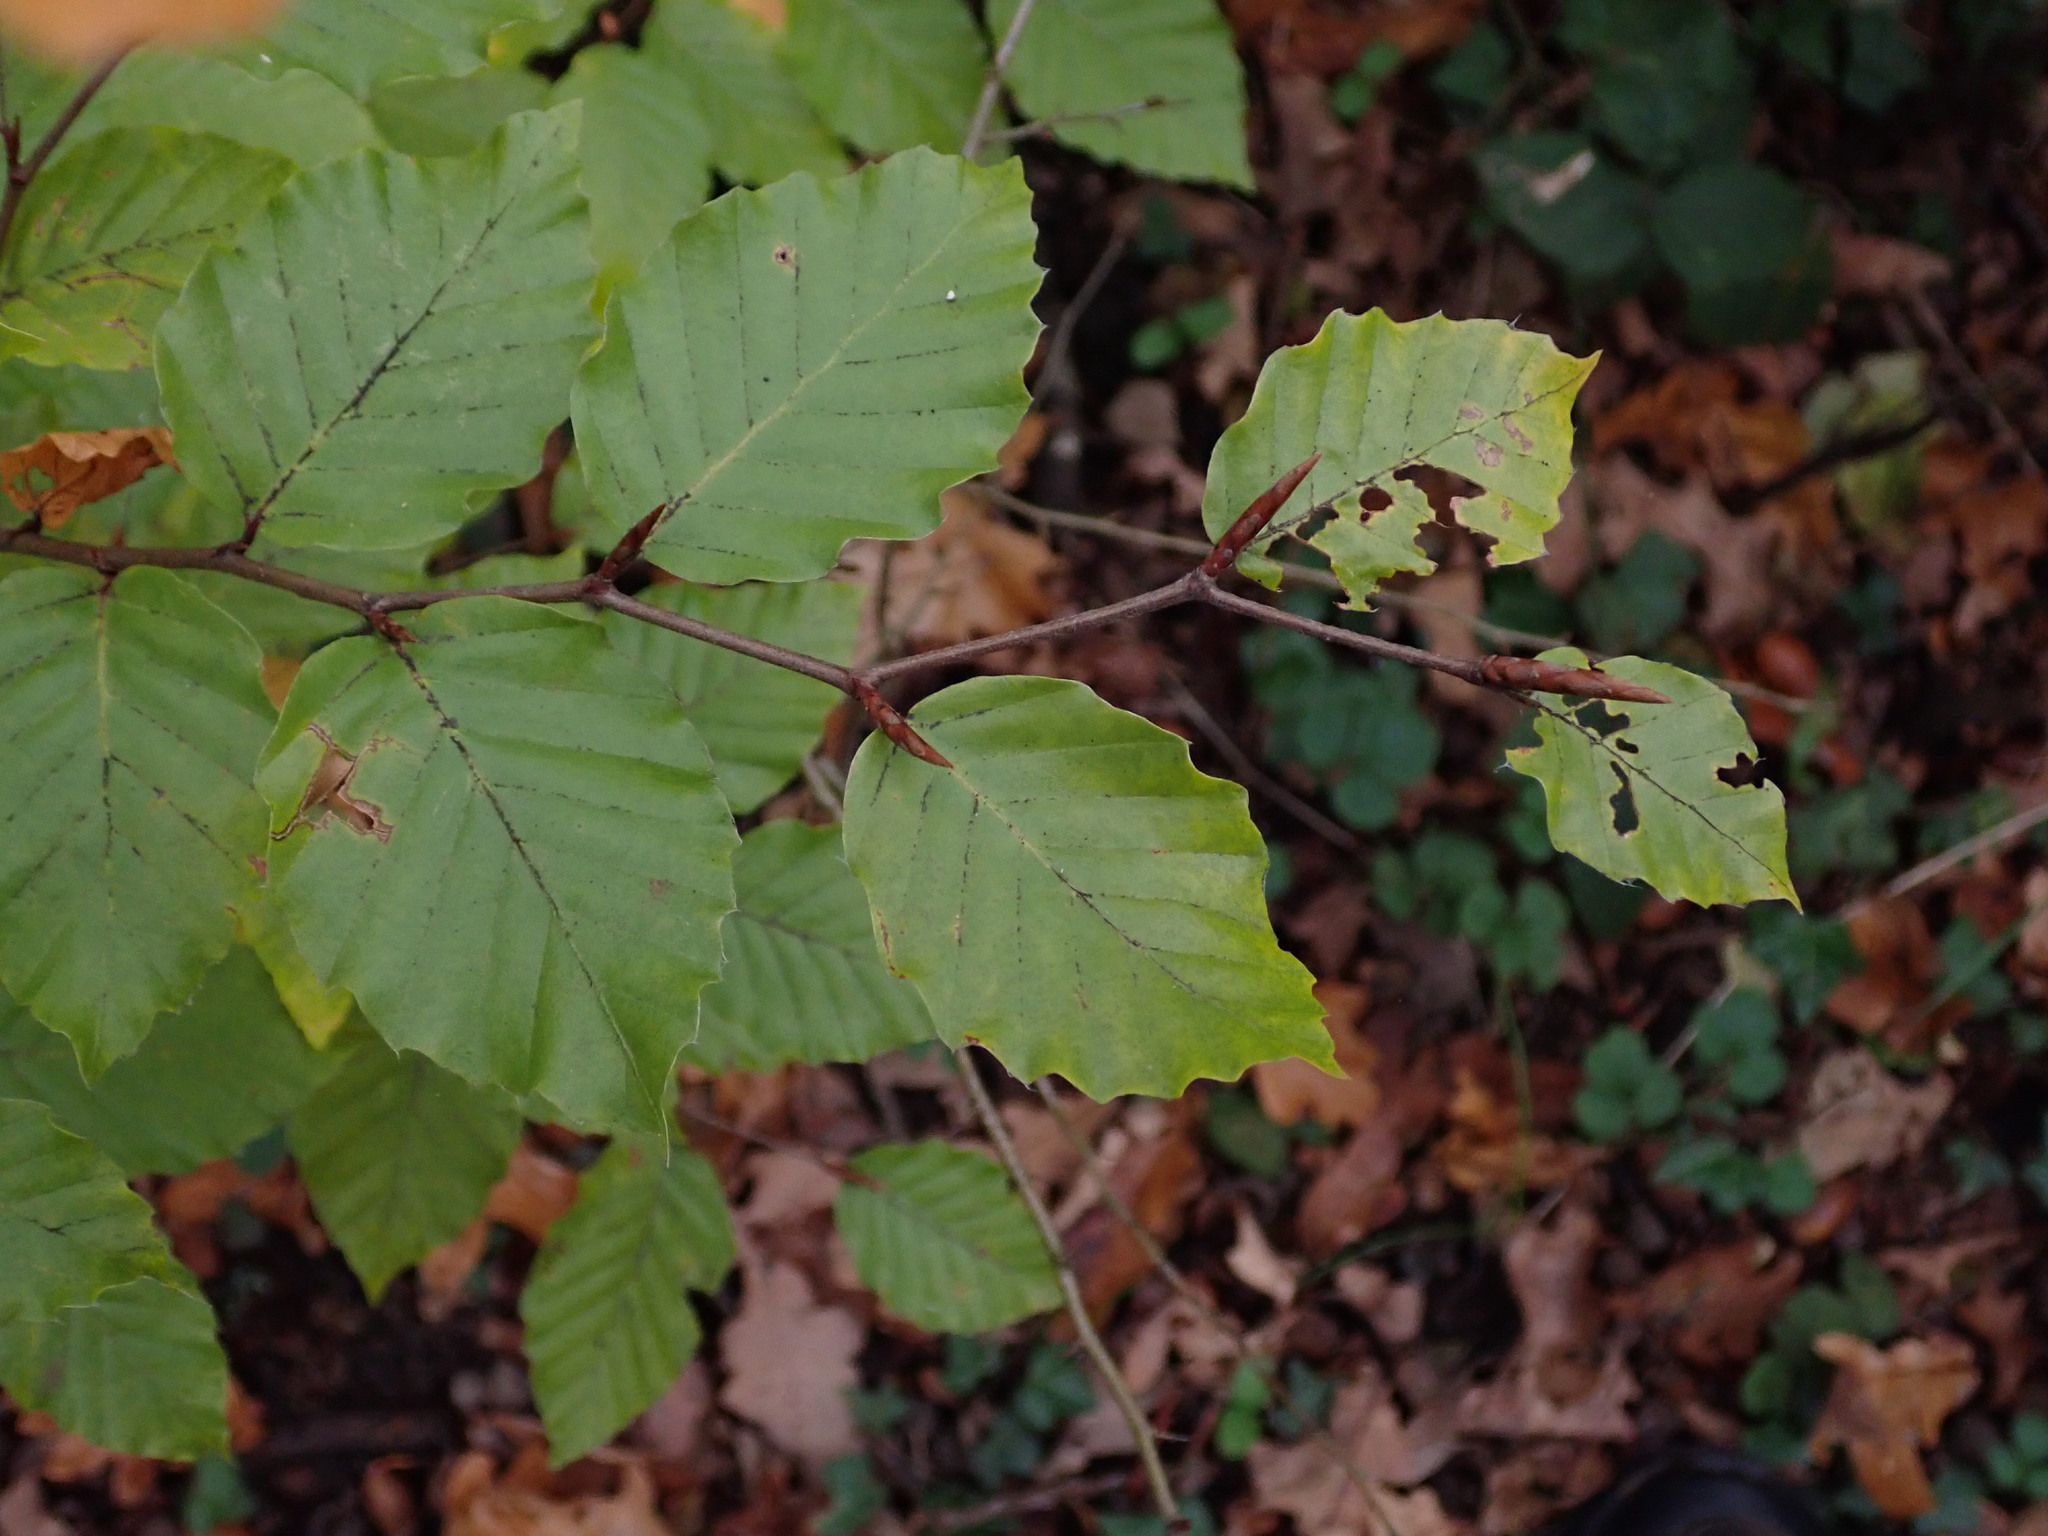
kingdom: Plantae
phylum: Tracheophyta
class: Magnoliopsida
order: Fagales
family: Fagaceae
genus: Fagus
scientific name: Fagus sylvatica
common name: Beech
